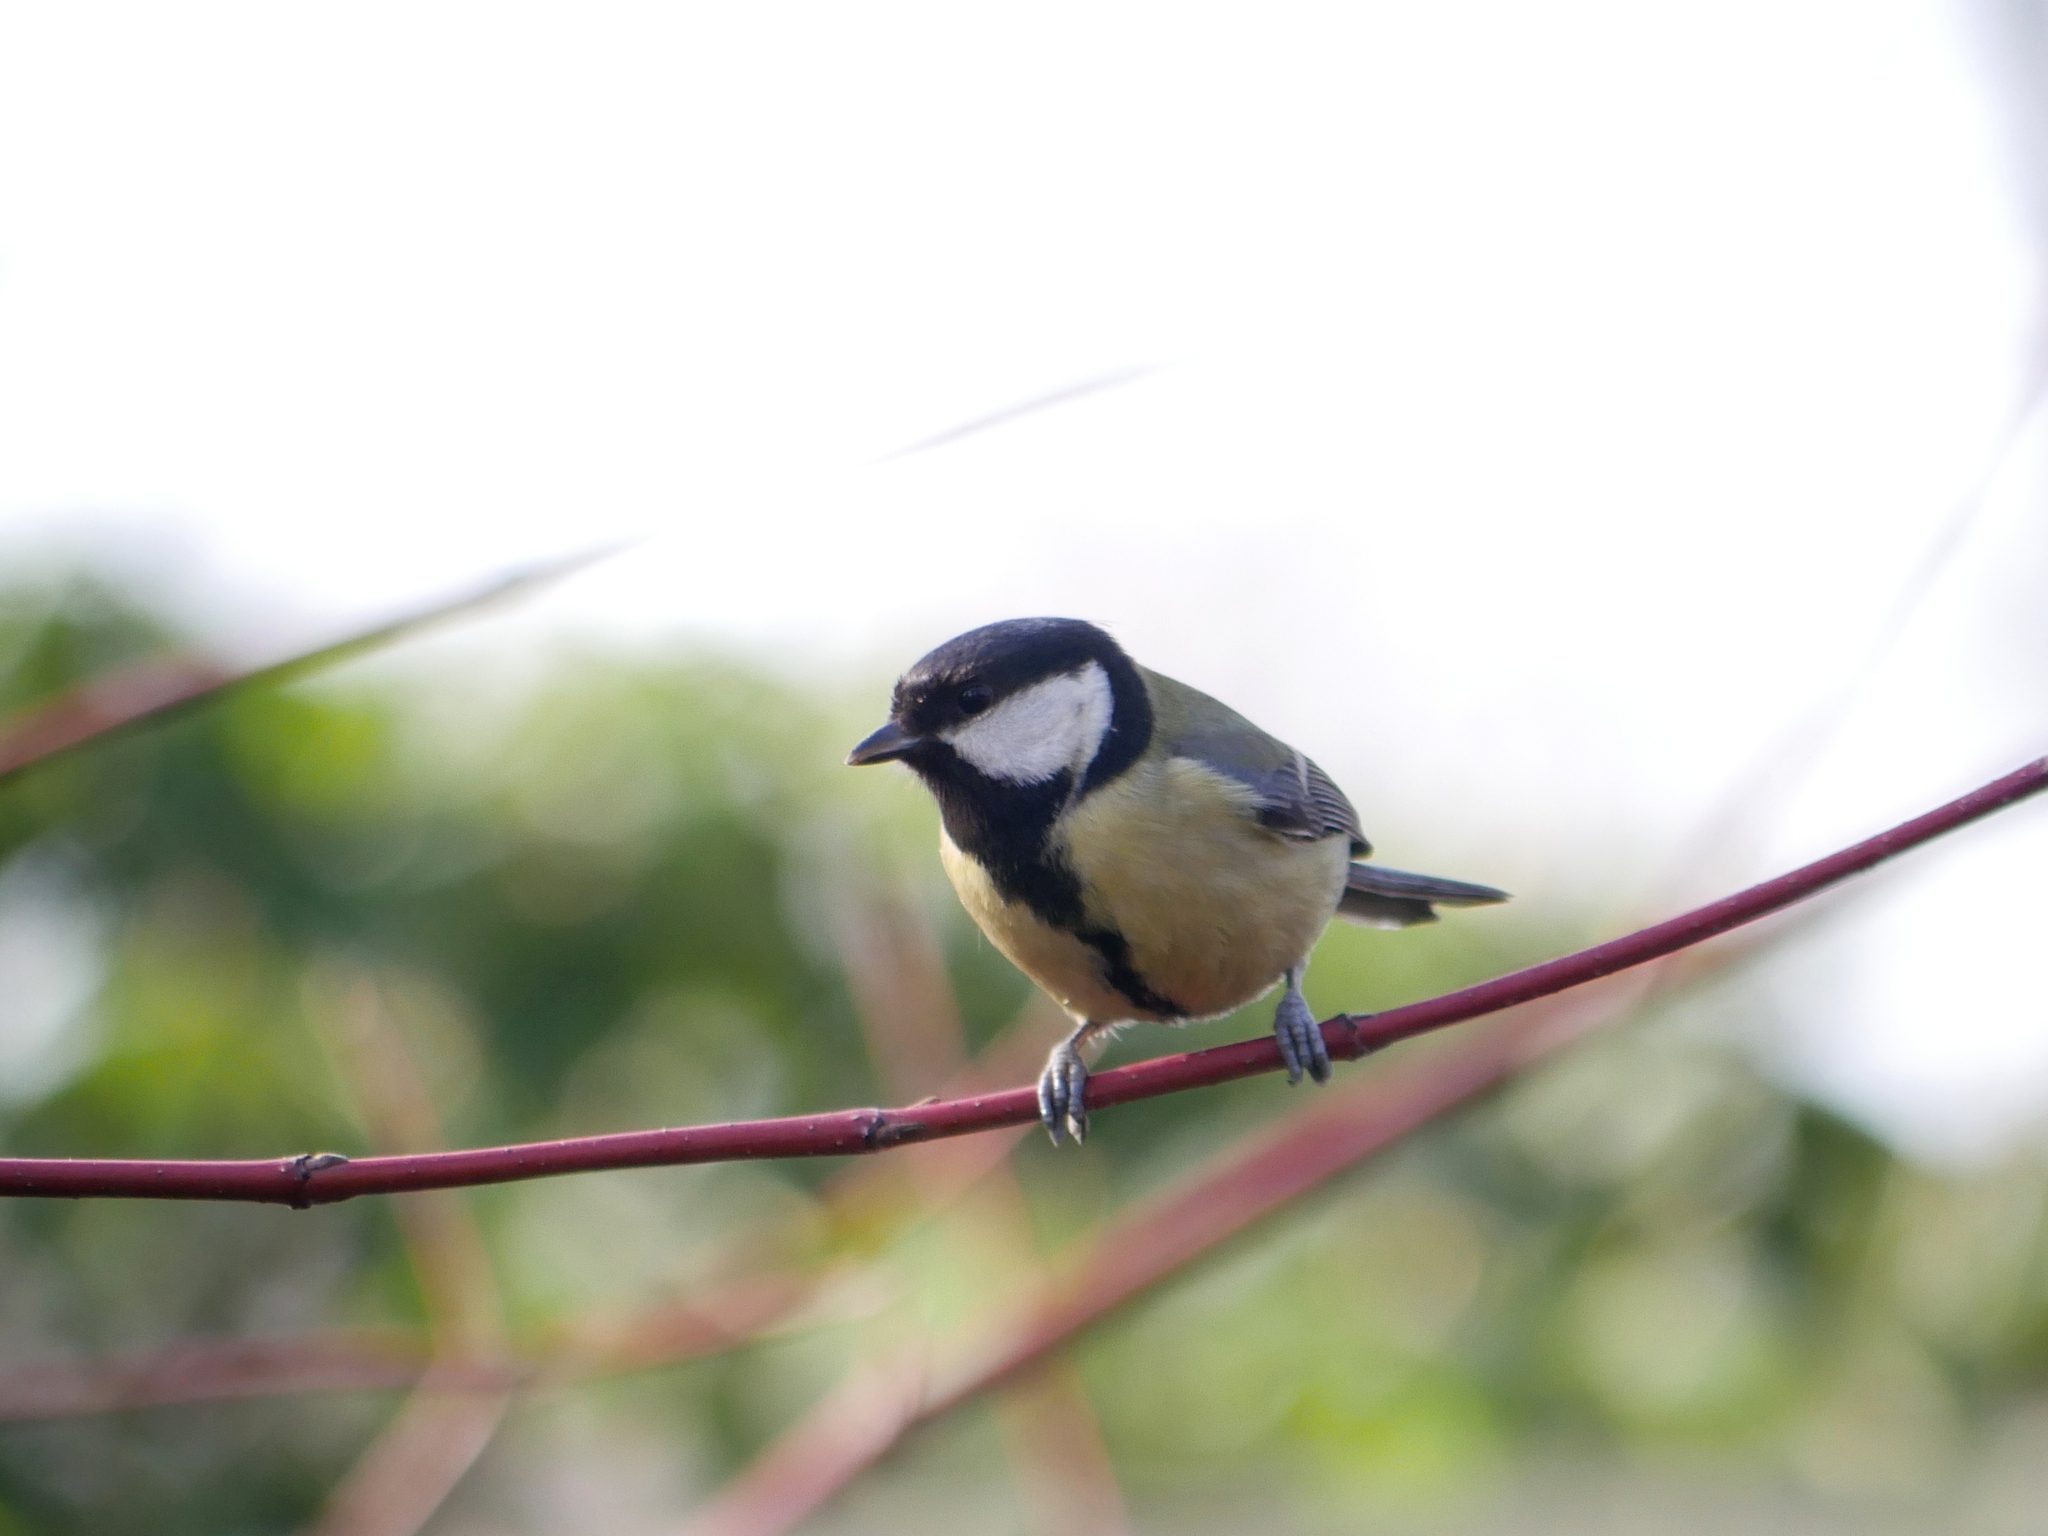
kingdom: Animalia
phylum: Chordata
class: Aves
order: Passeriformes
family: Paridae
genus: Parus
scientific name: Parus major
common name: Great tit
